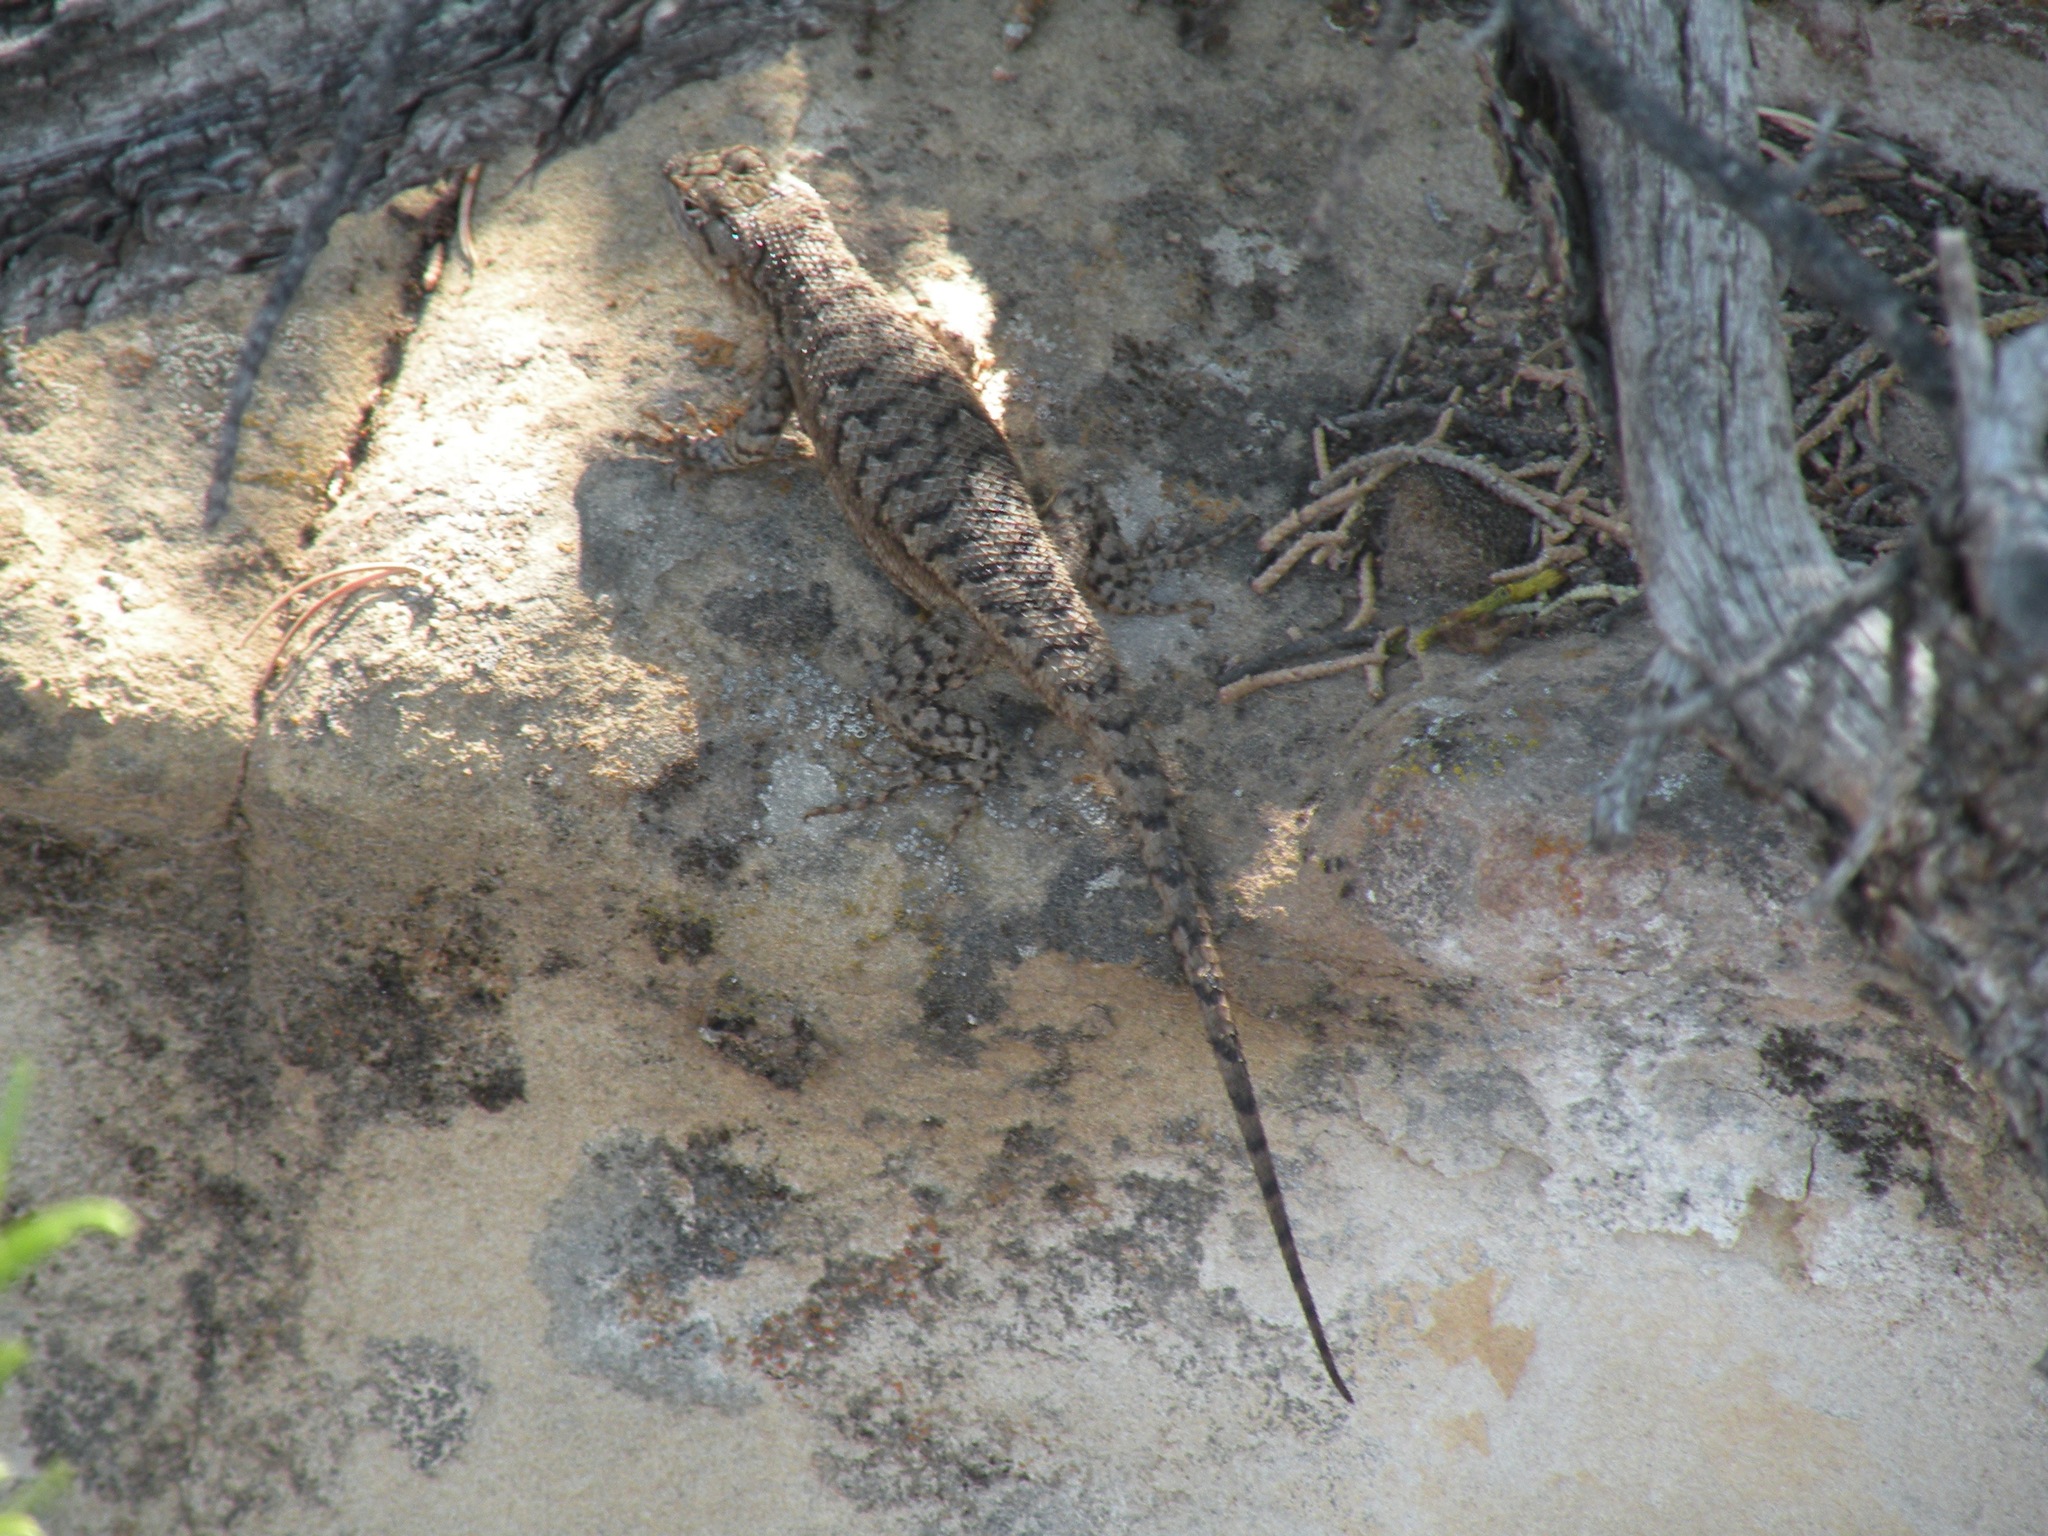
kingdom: Animalia
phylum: Chordata
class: Squamata
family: Phrynosomatidae
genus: Sceloporus
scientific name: Sceloporus graciosus
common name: Sagebrush lizard
